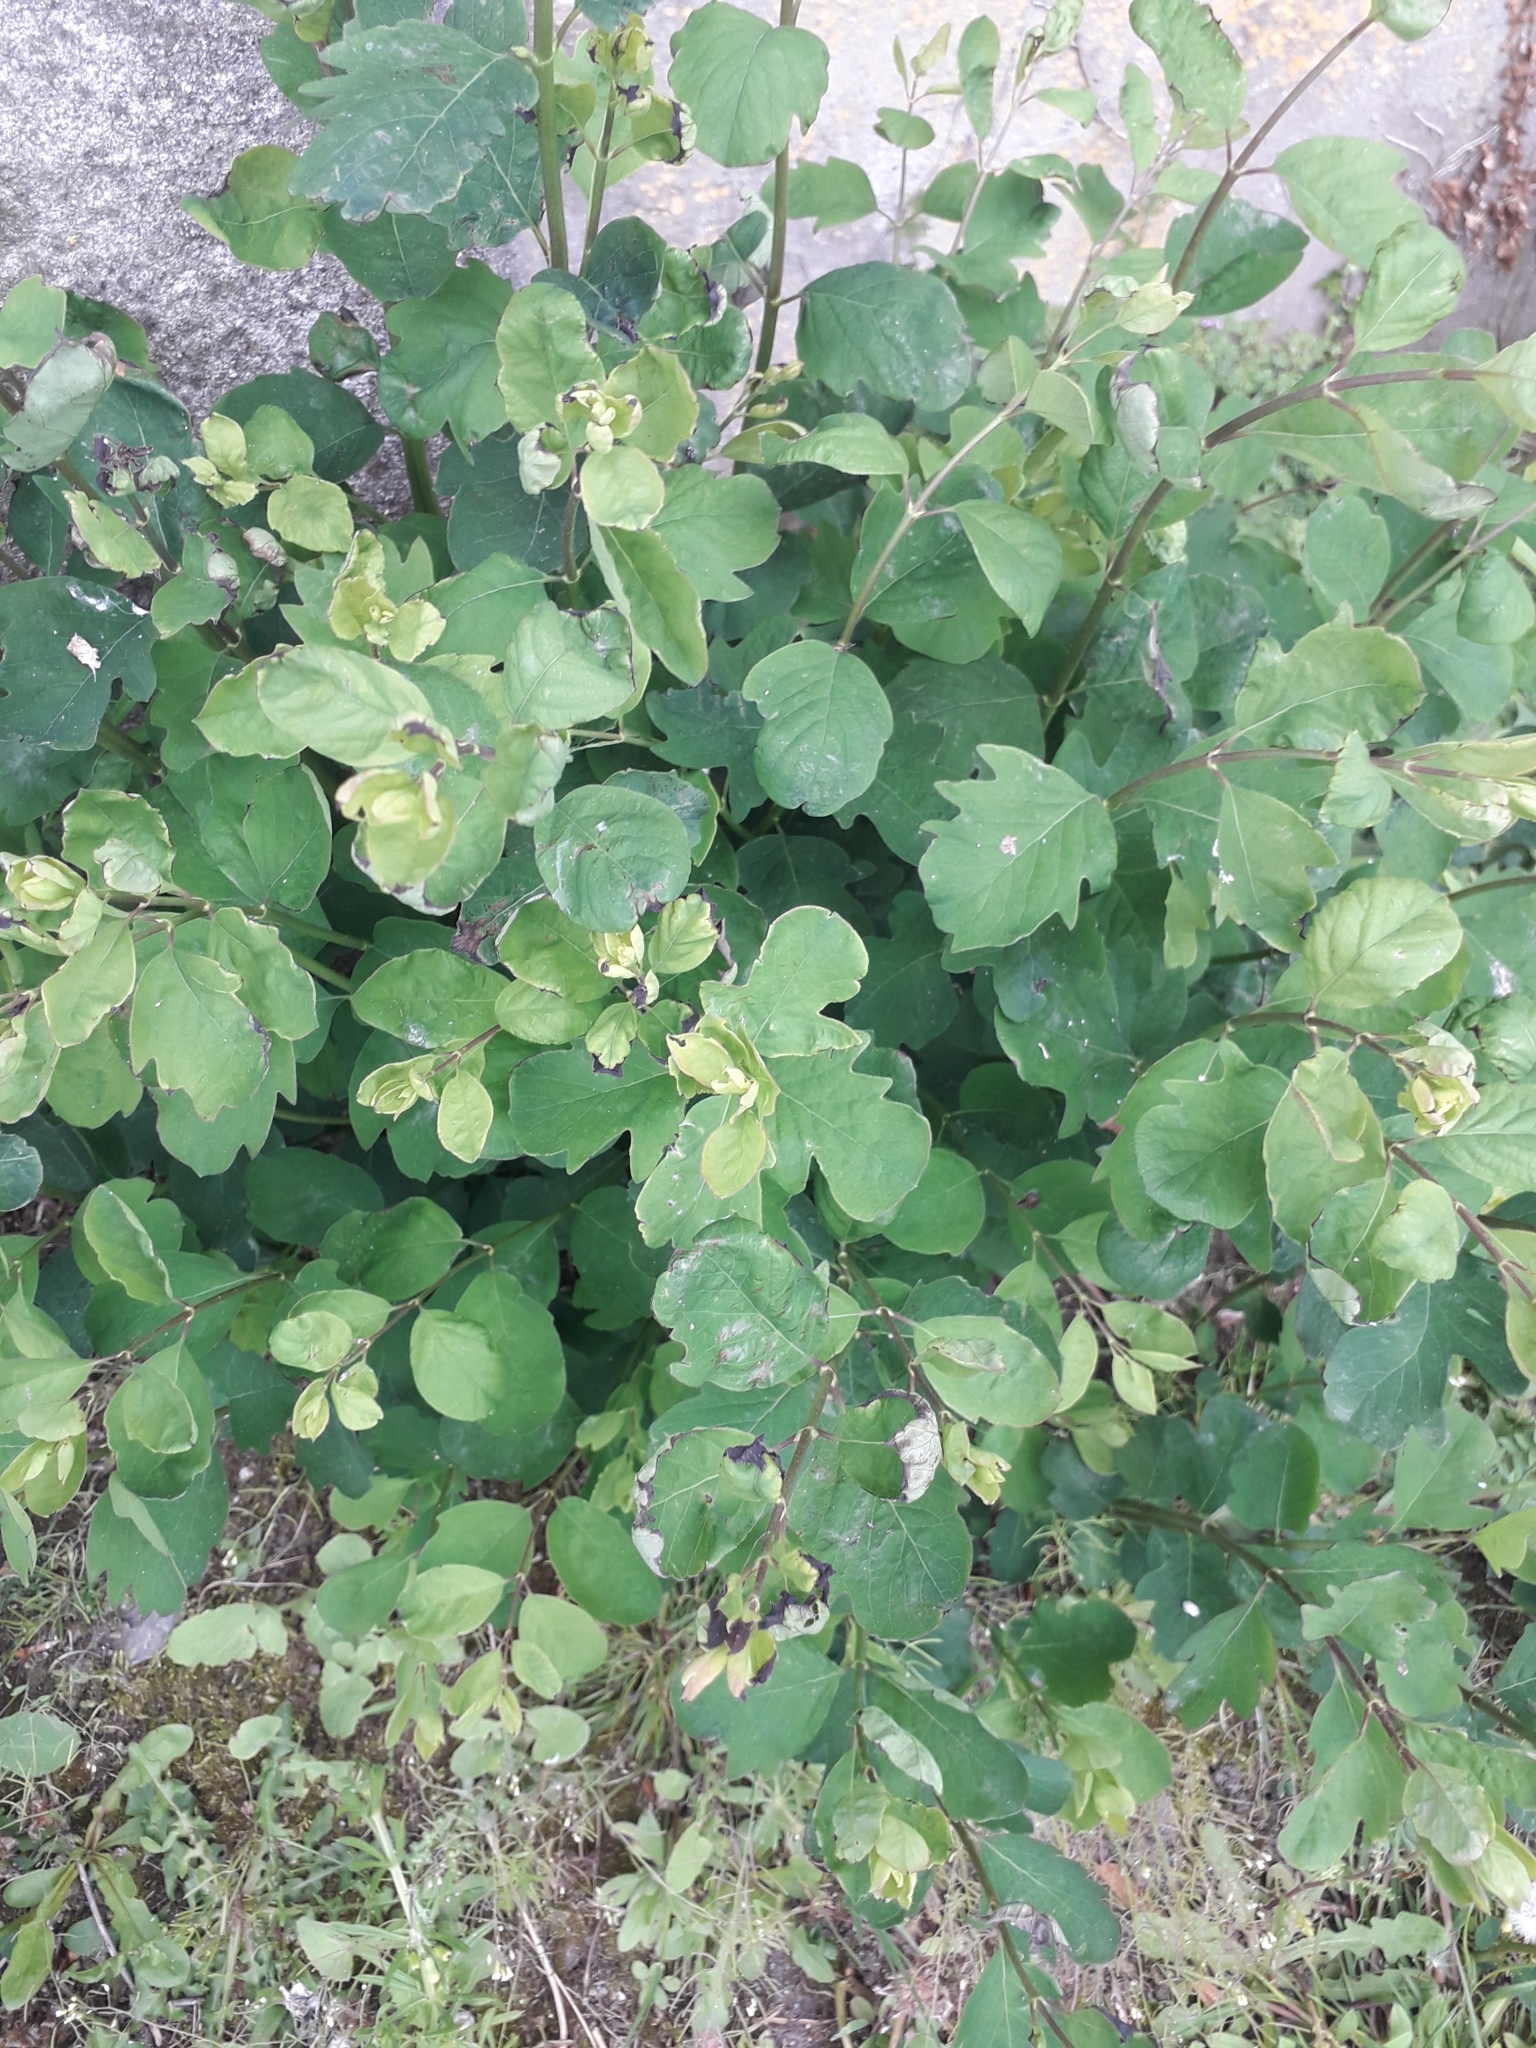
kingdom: Plantae
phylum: Tracheophyta
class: Magnoliopsida
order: Dipsacales
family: Caprifoliaceae
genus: Symphoricarpos
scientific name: Symphoricarpos albus
